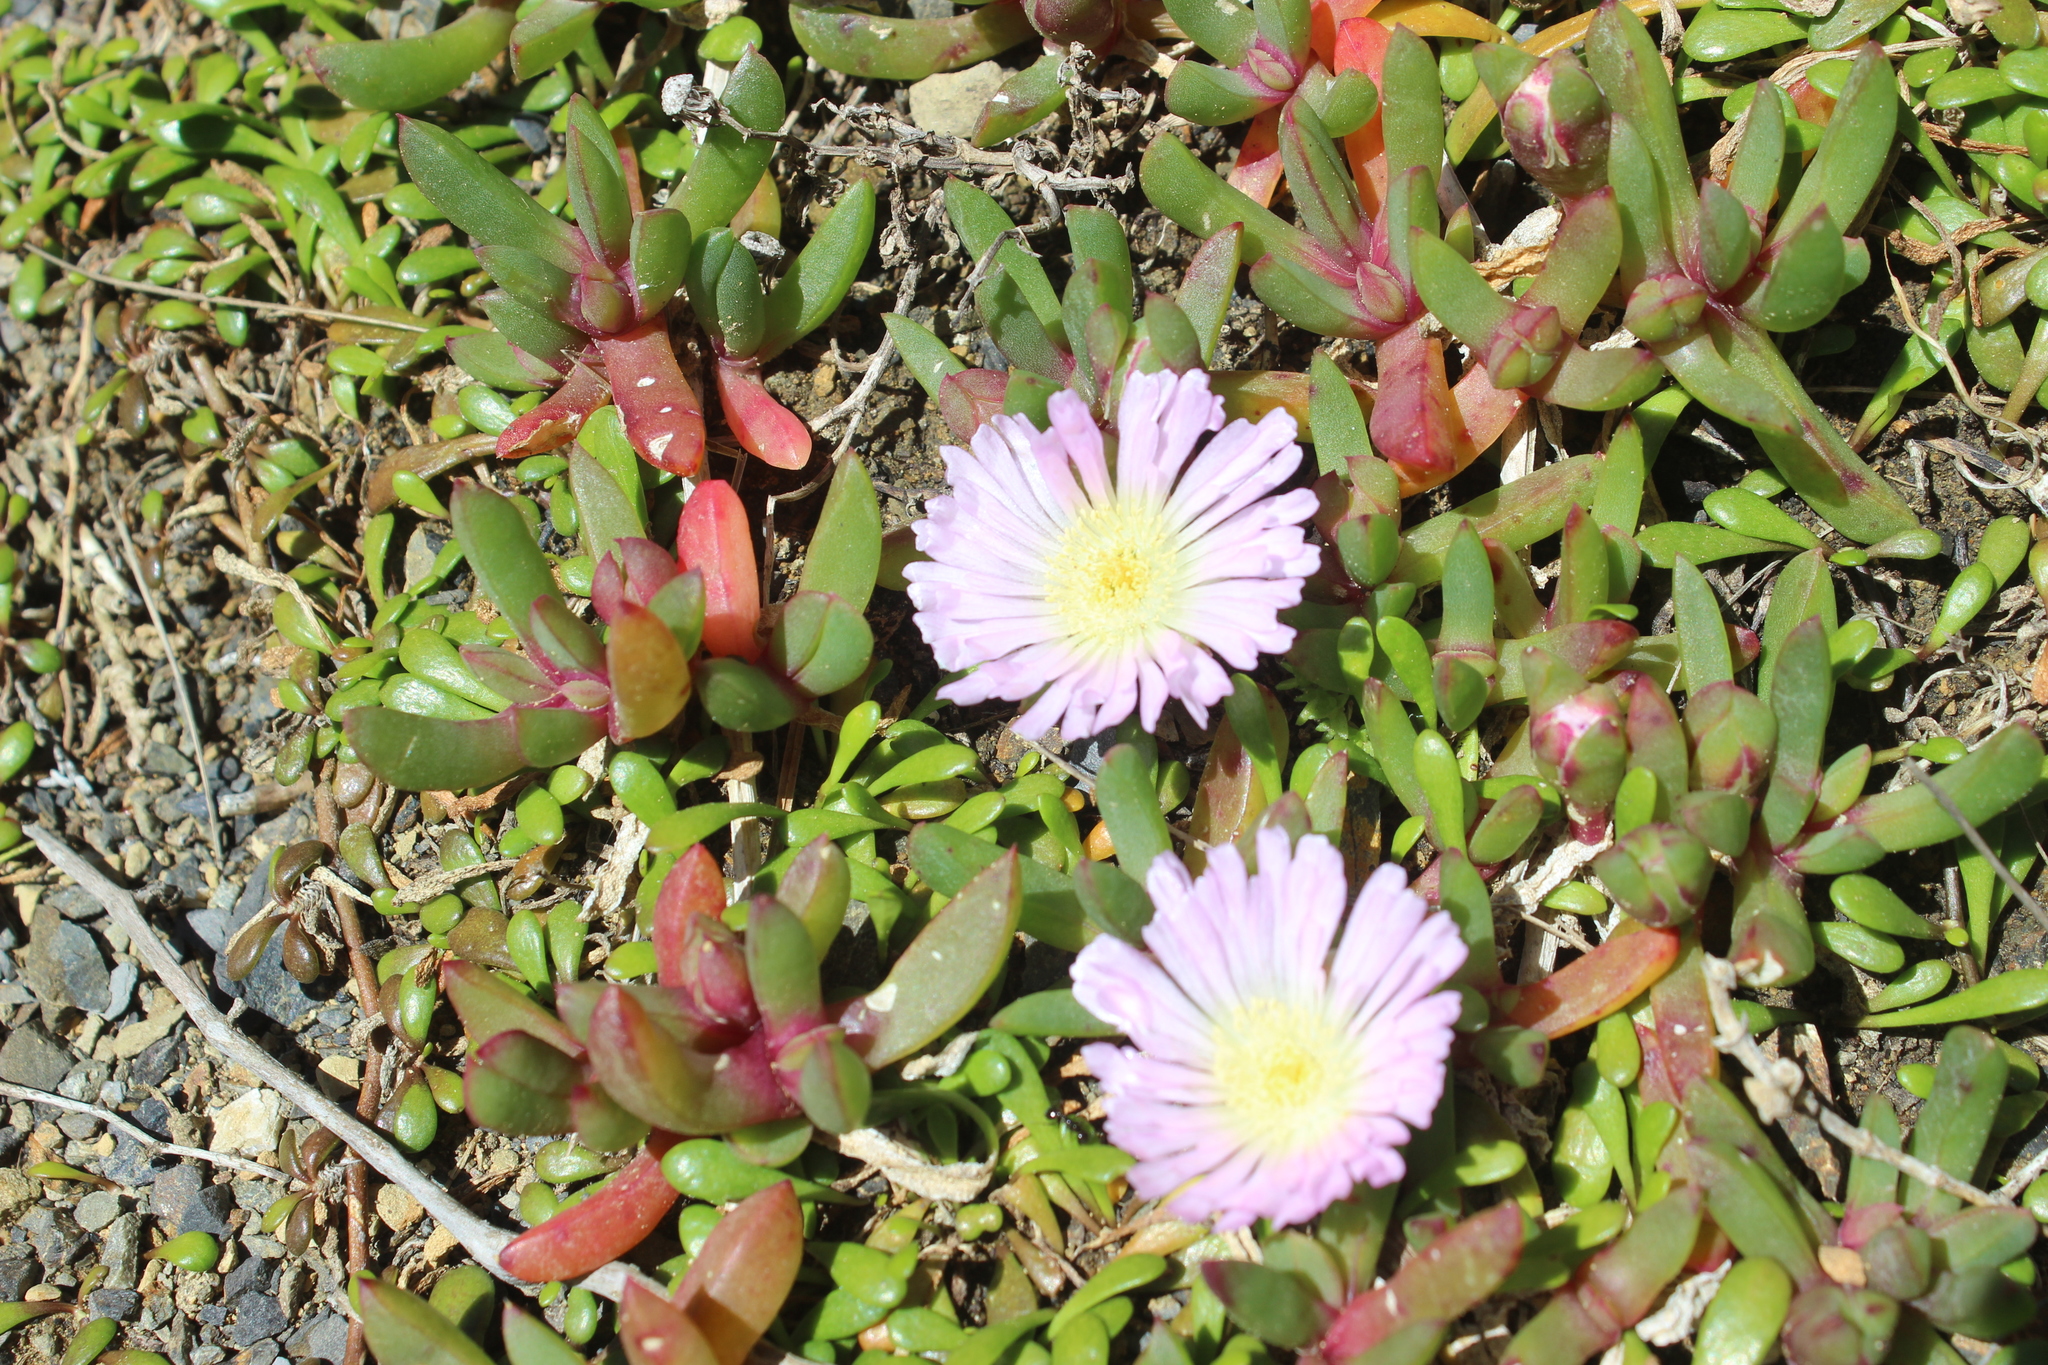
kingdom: Plantae
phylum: Tracheophyta
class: Magnoliopsida
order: Caryophyllales
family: Aizoaceae
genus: Disphyma
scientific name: Disphyma australe
